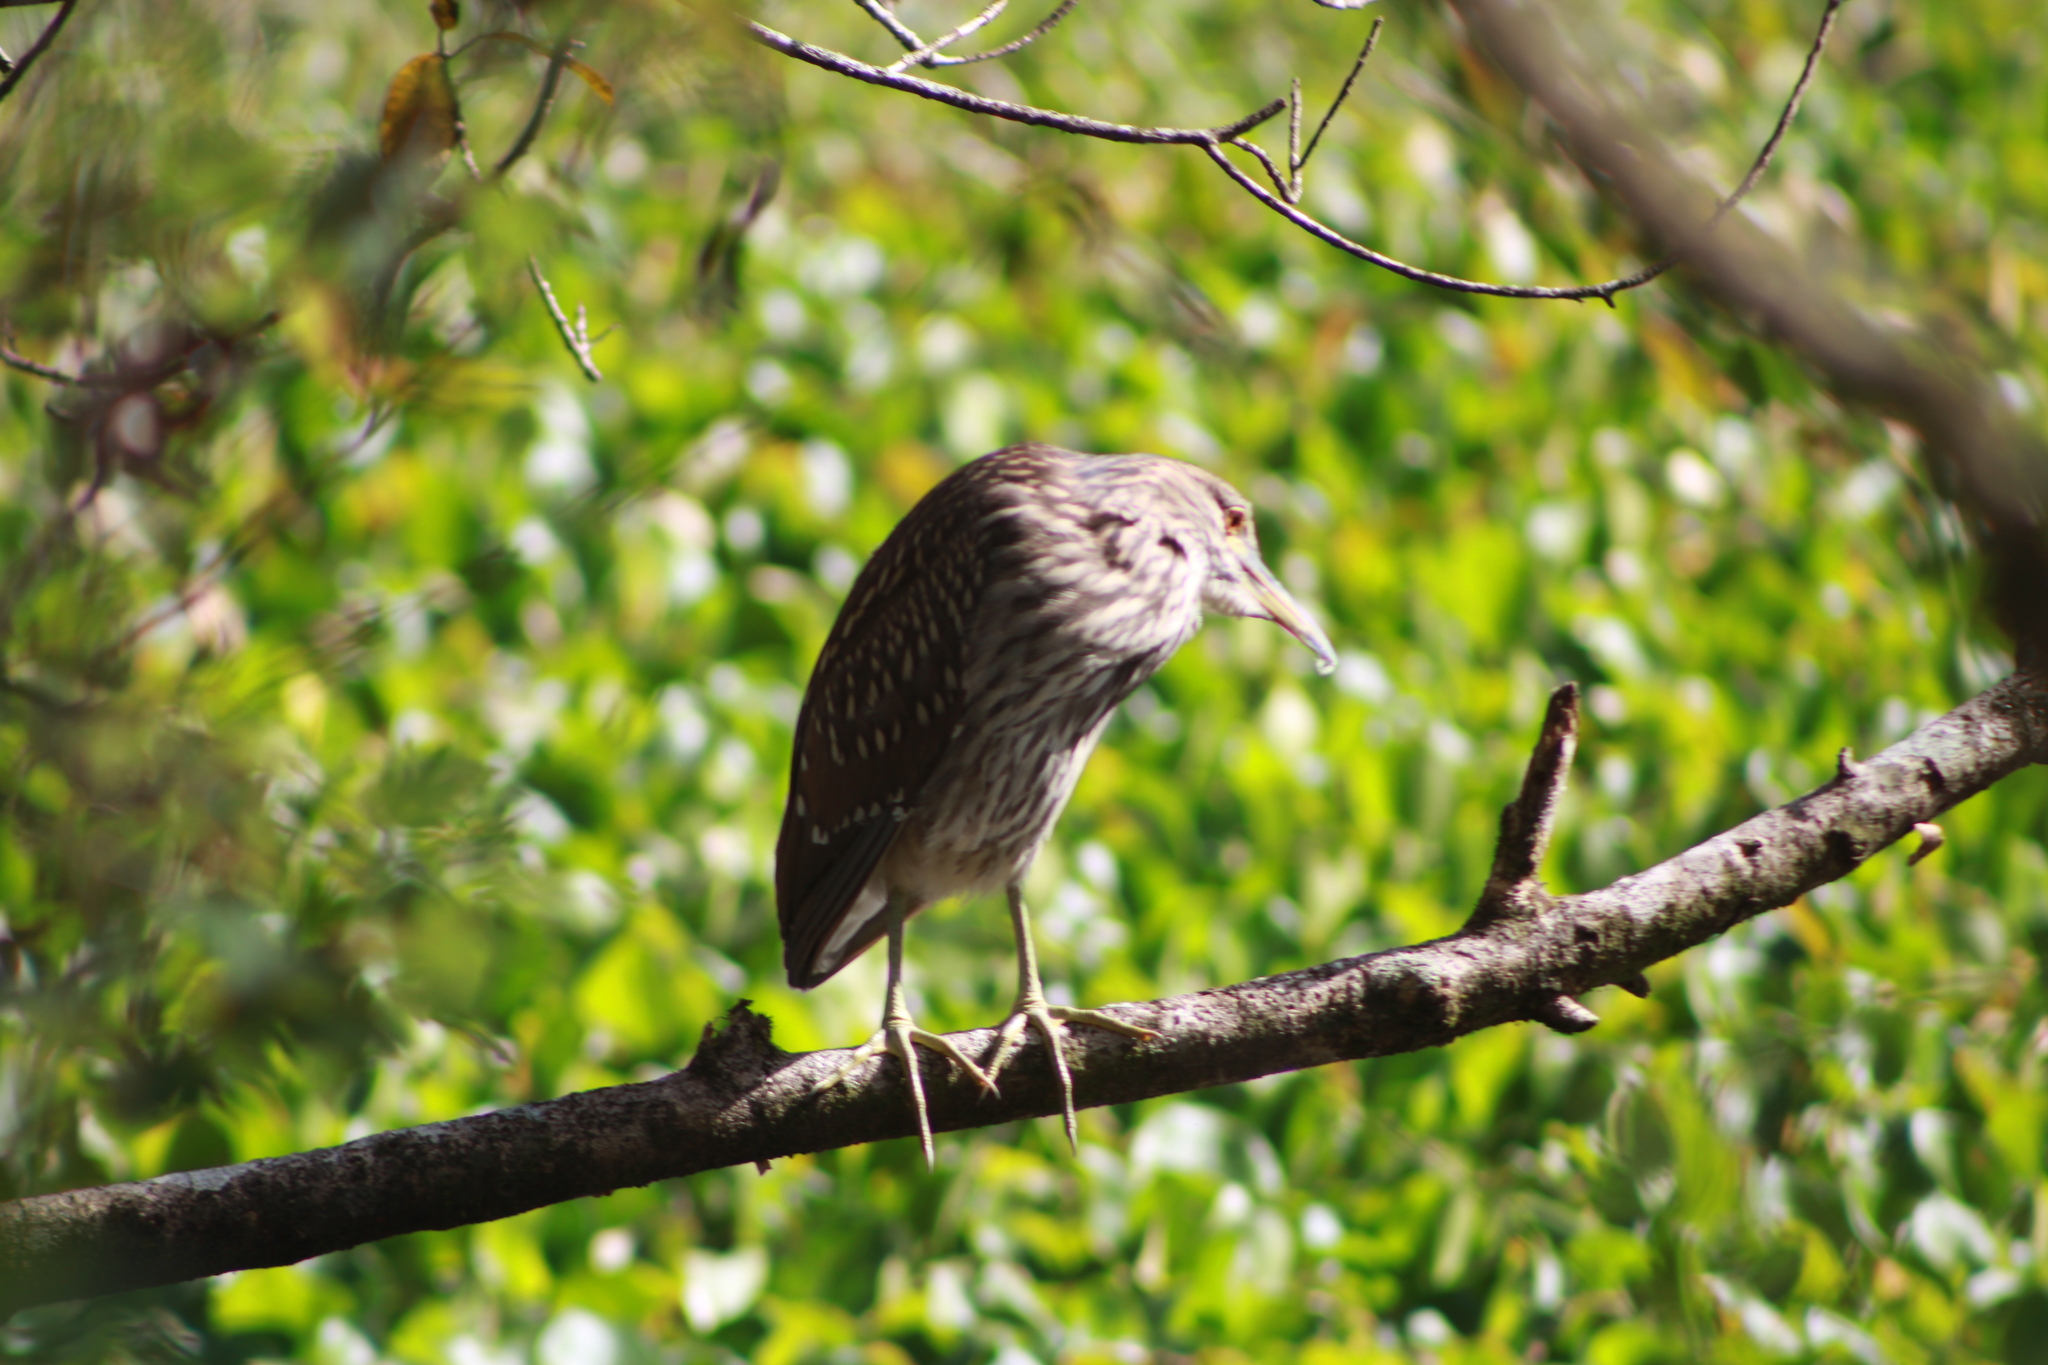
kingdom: Animalia
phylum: Chordata
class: Aves
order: Pelecaniformes
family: Ardeidae
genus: Nycticorax
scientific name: Nycticorax nycticorax
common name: Black-crowned night heron
